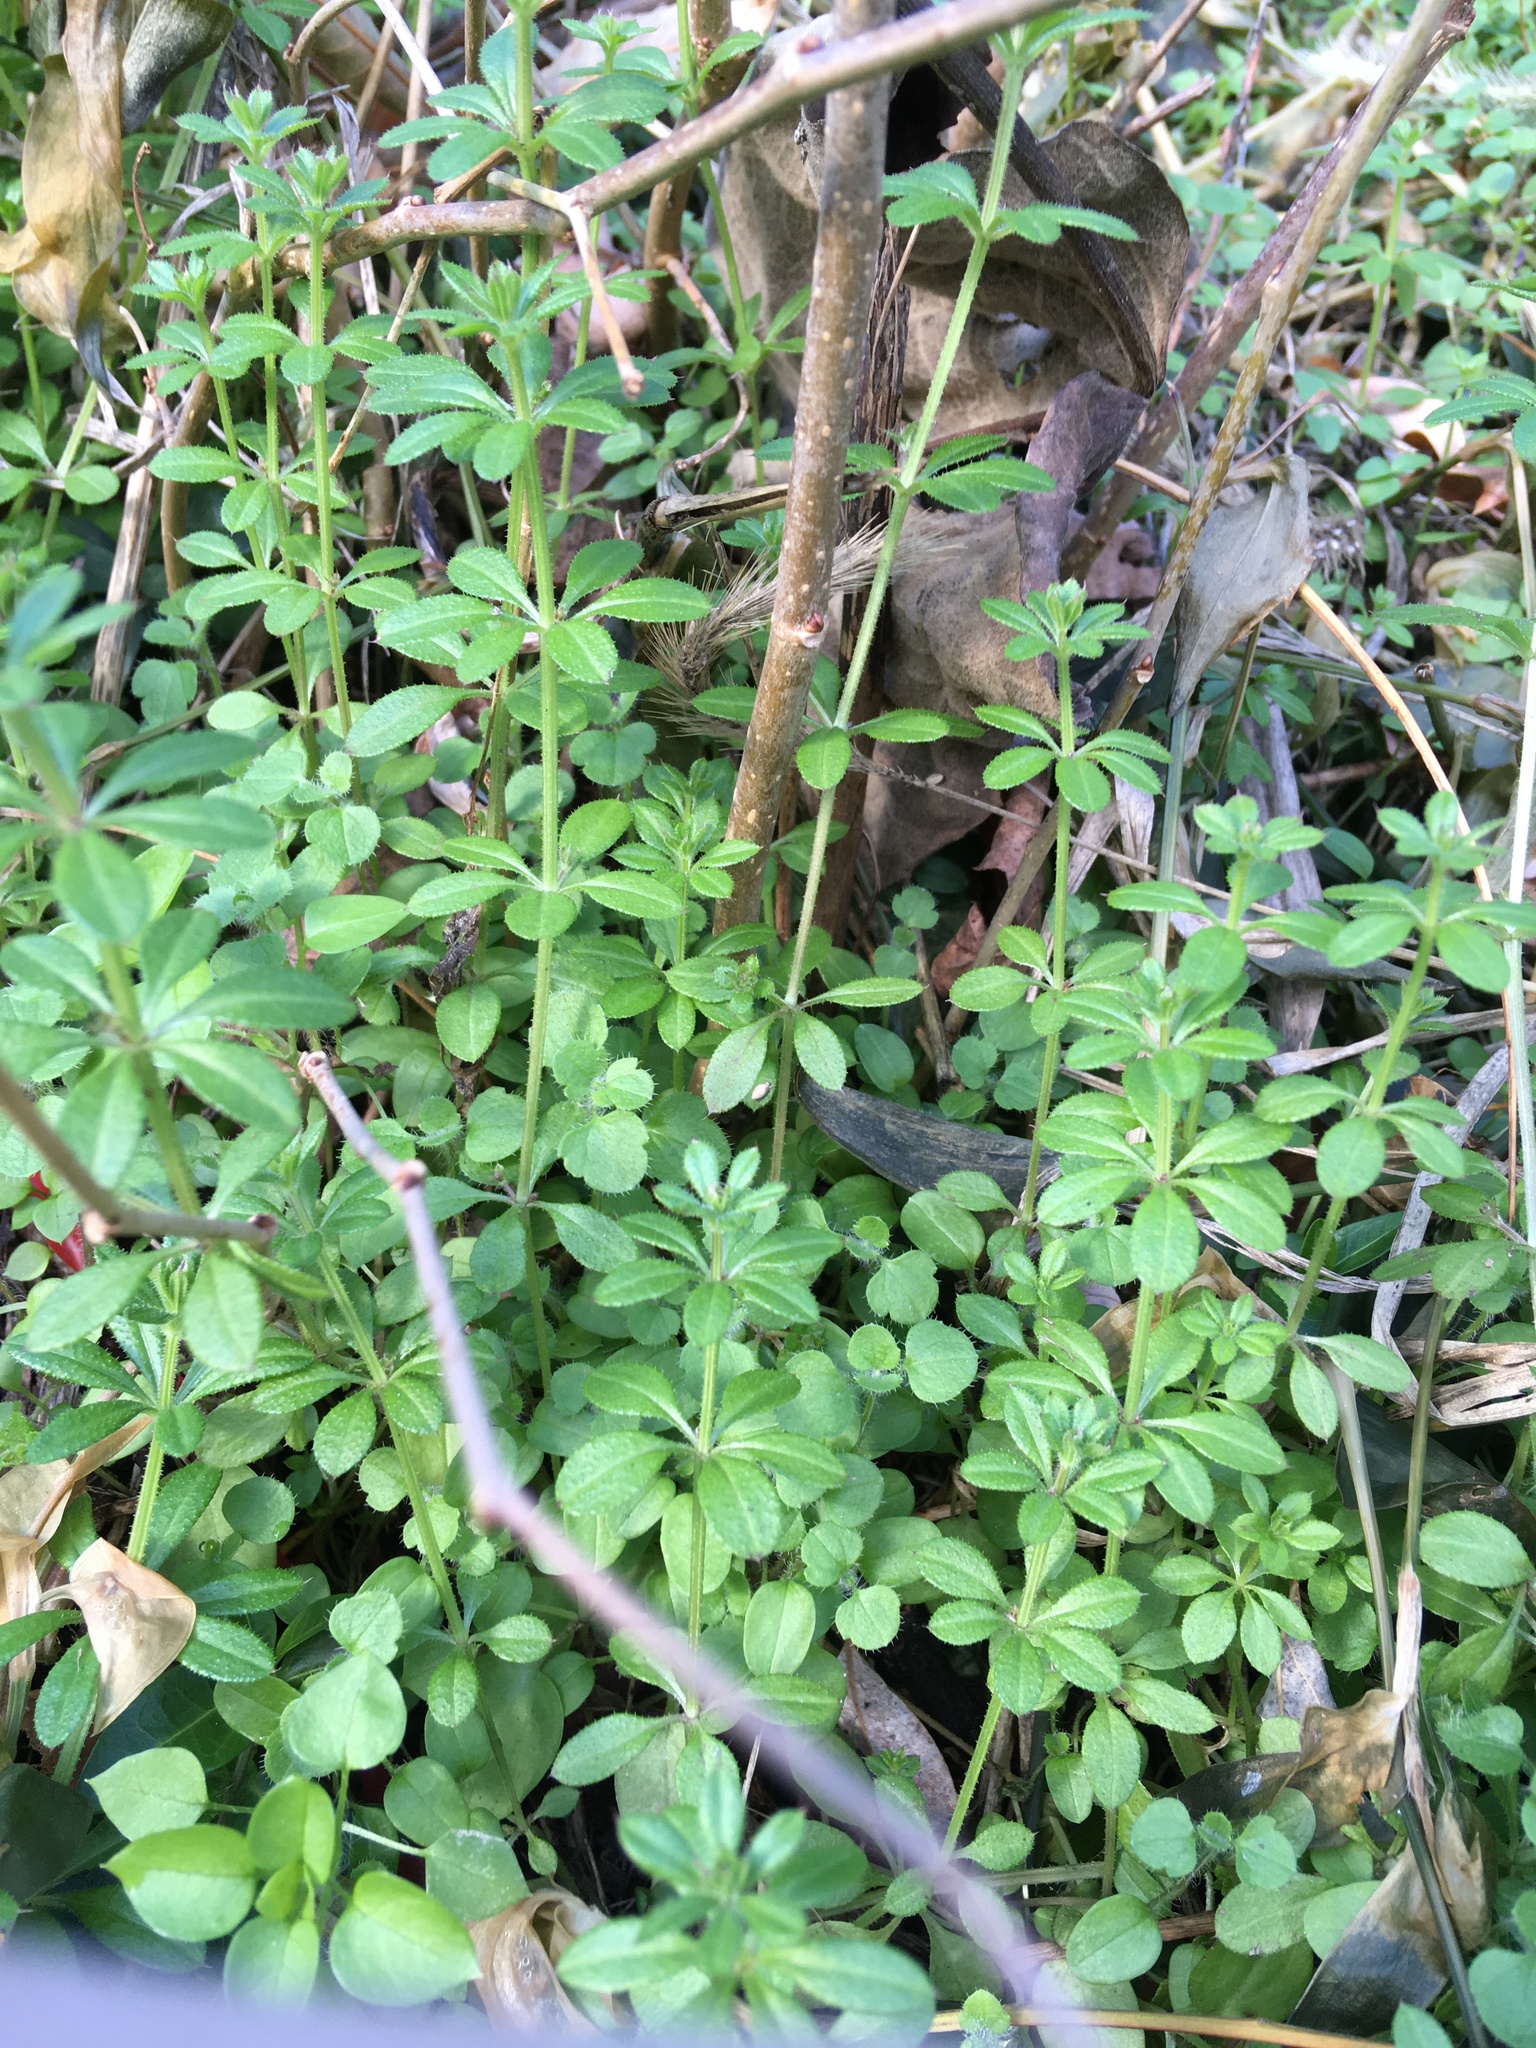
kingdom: Plantae
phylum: Tracheophyta
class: Magnoliopsida
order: Gentianales
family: Rubiaceae
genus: Galium
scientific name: Galium aparine
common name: Cleavers
